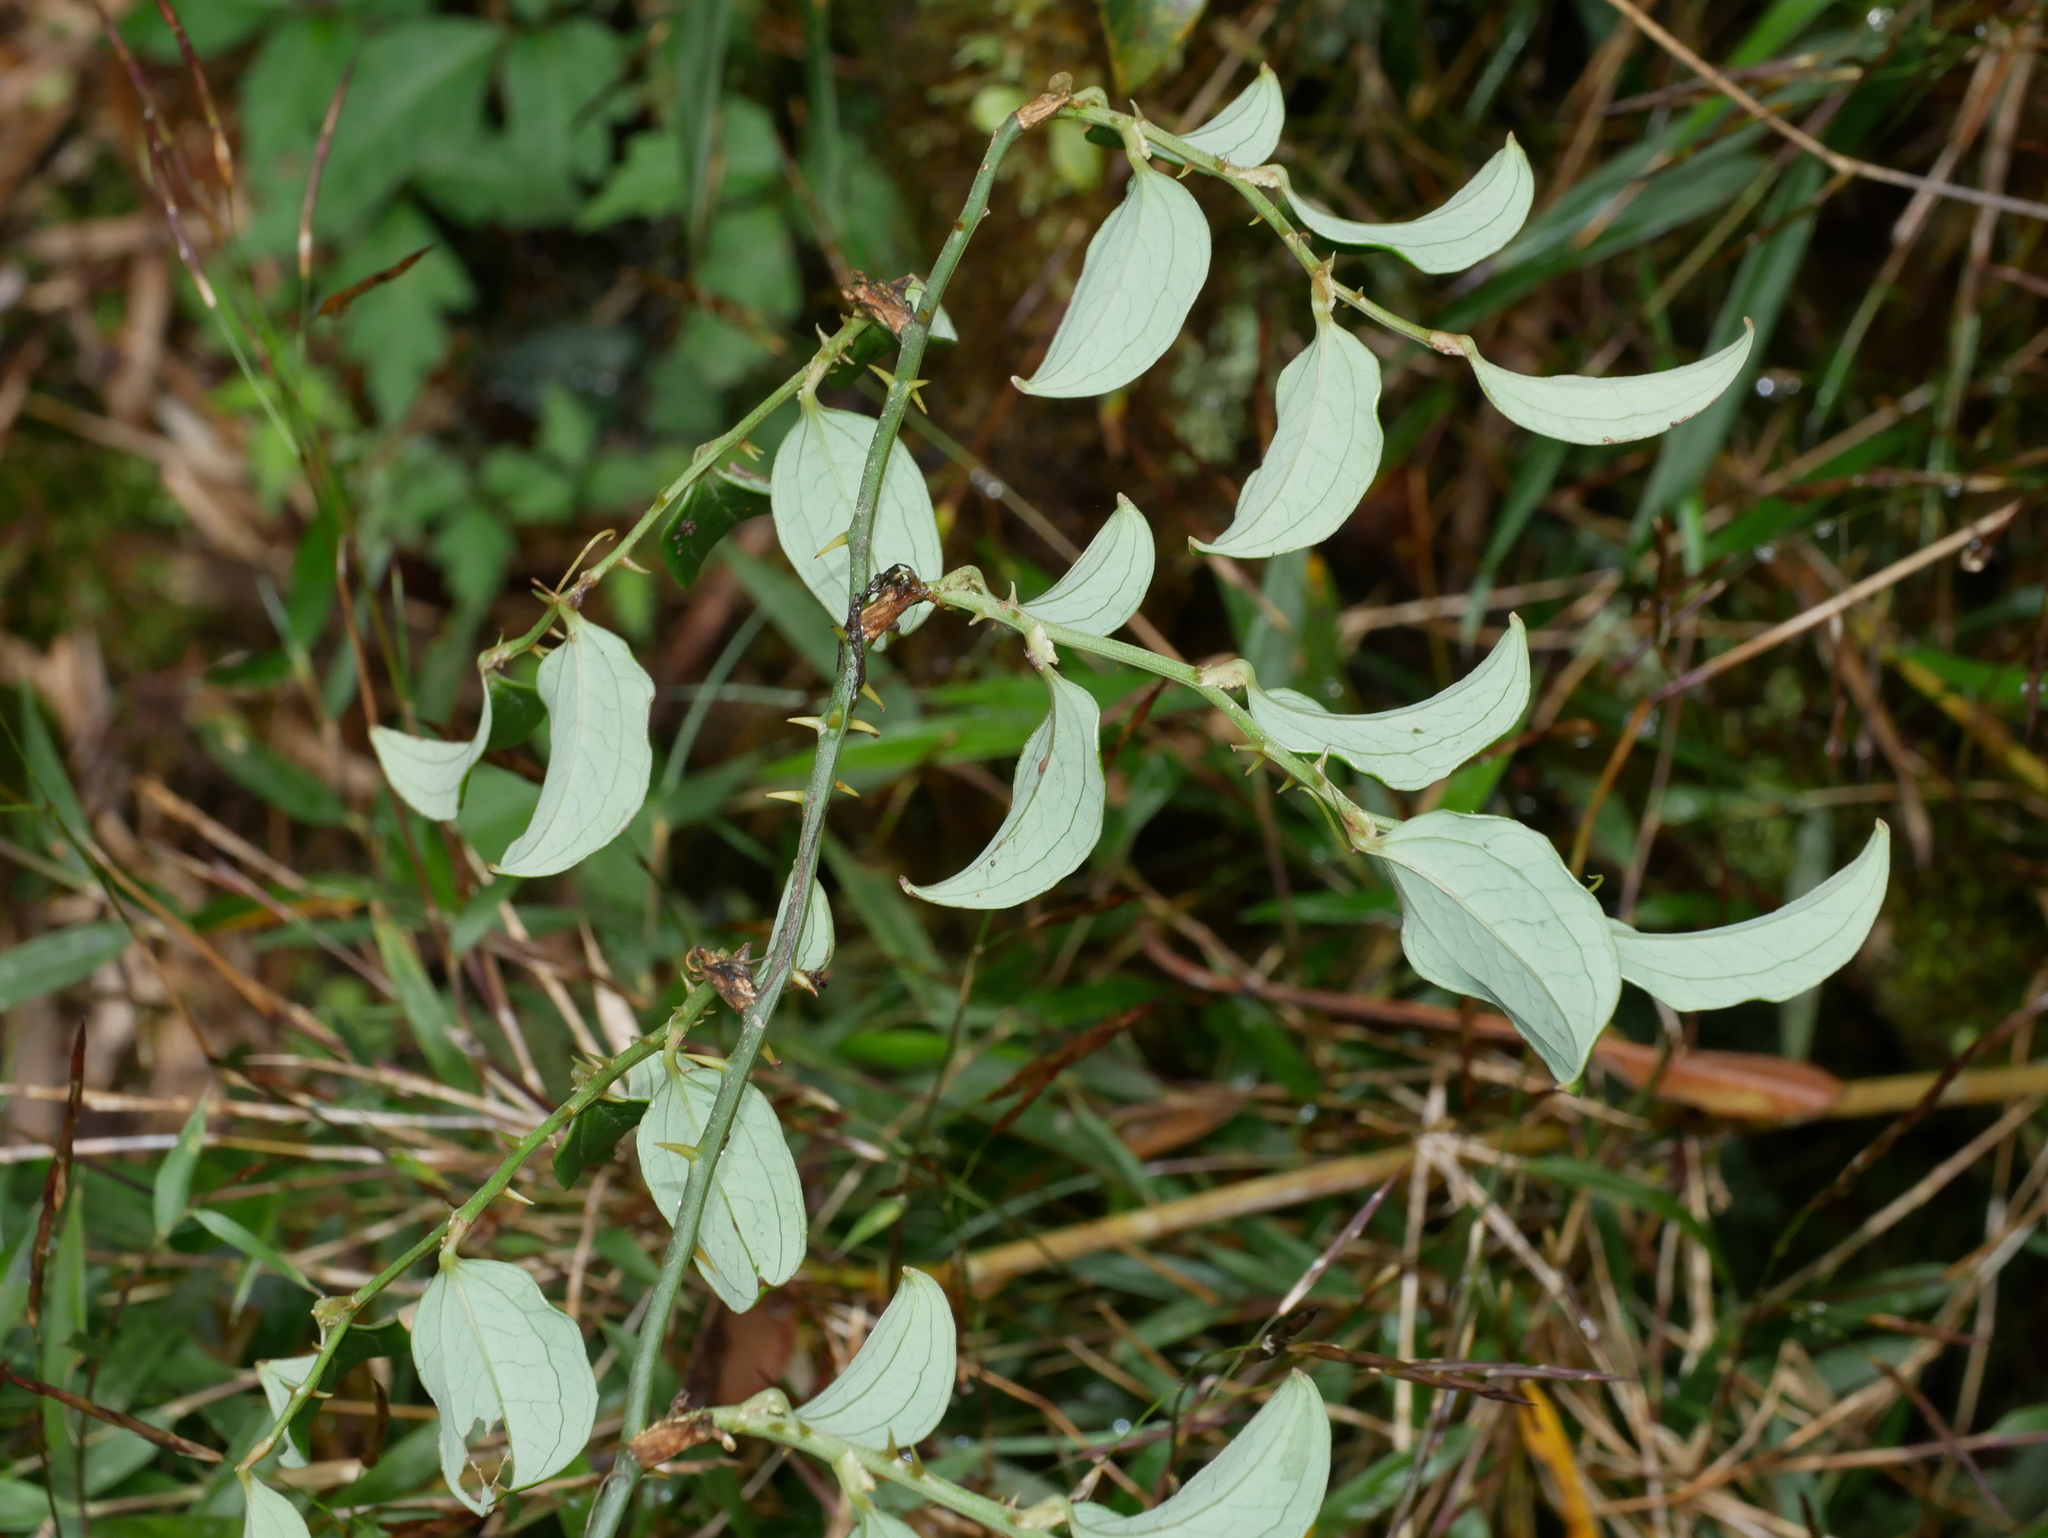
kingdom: Plantae
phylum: Tracheophyta
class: Liliopsida
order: Liliales
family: Smilacaceae
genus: Smilax
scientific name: Smilax discotis
